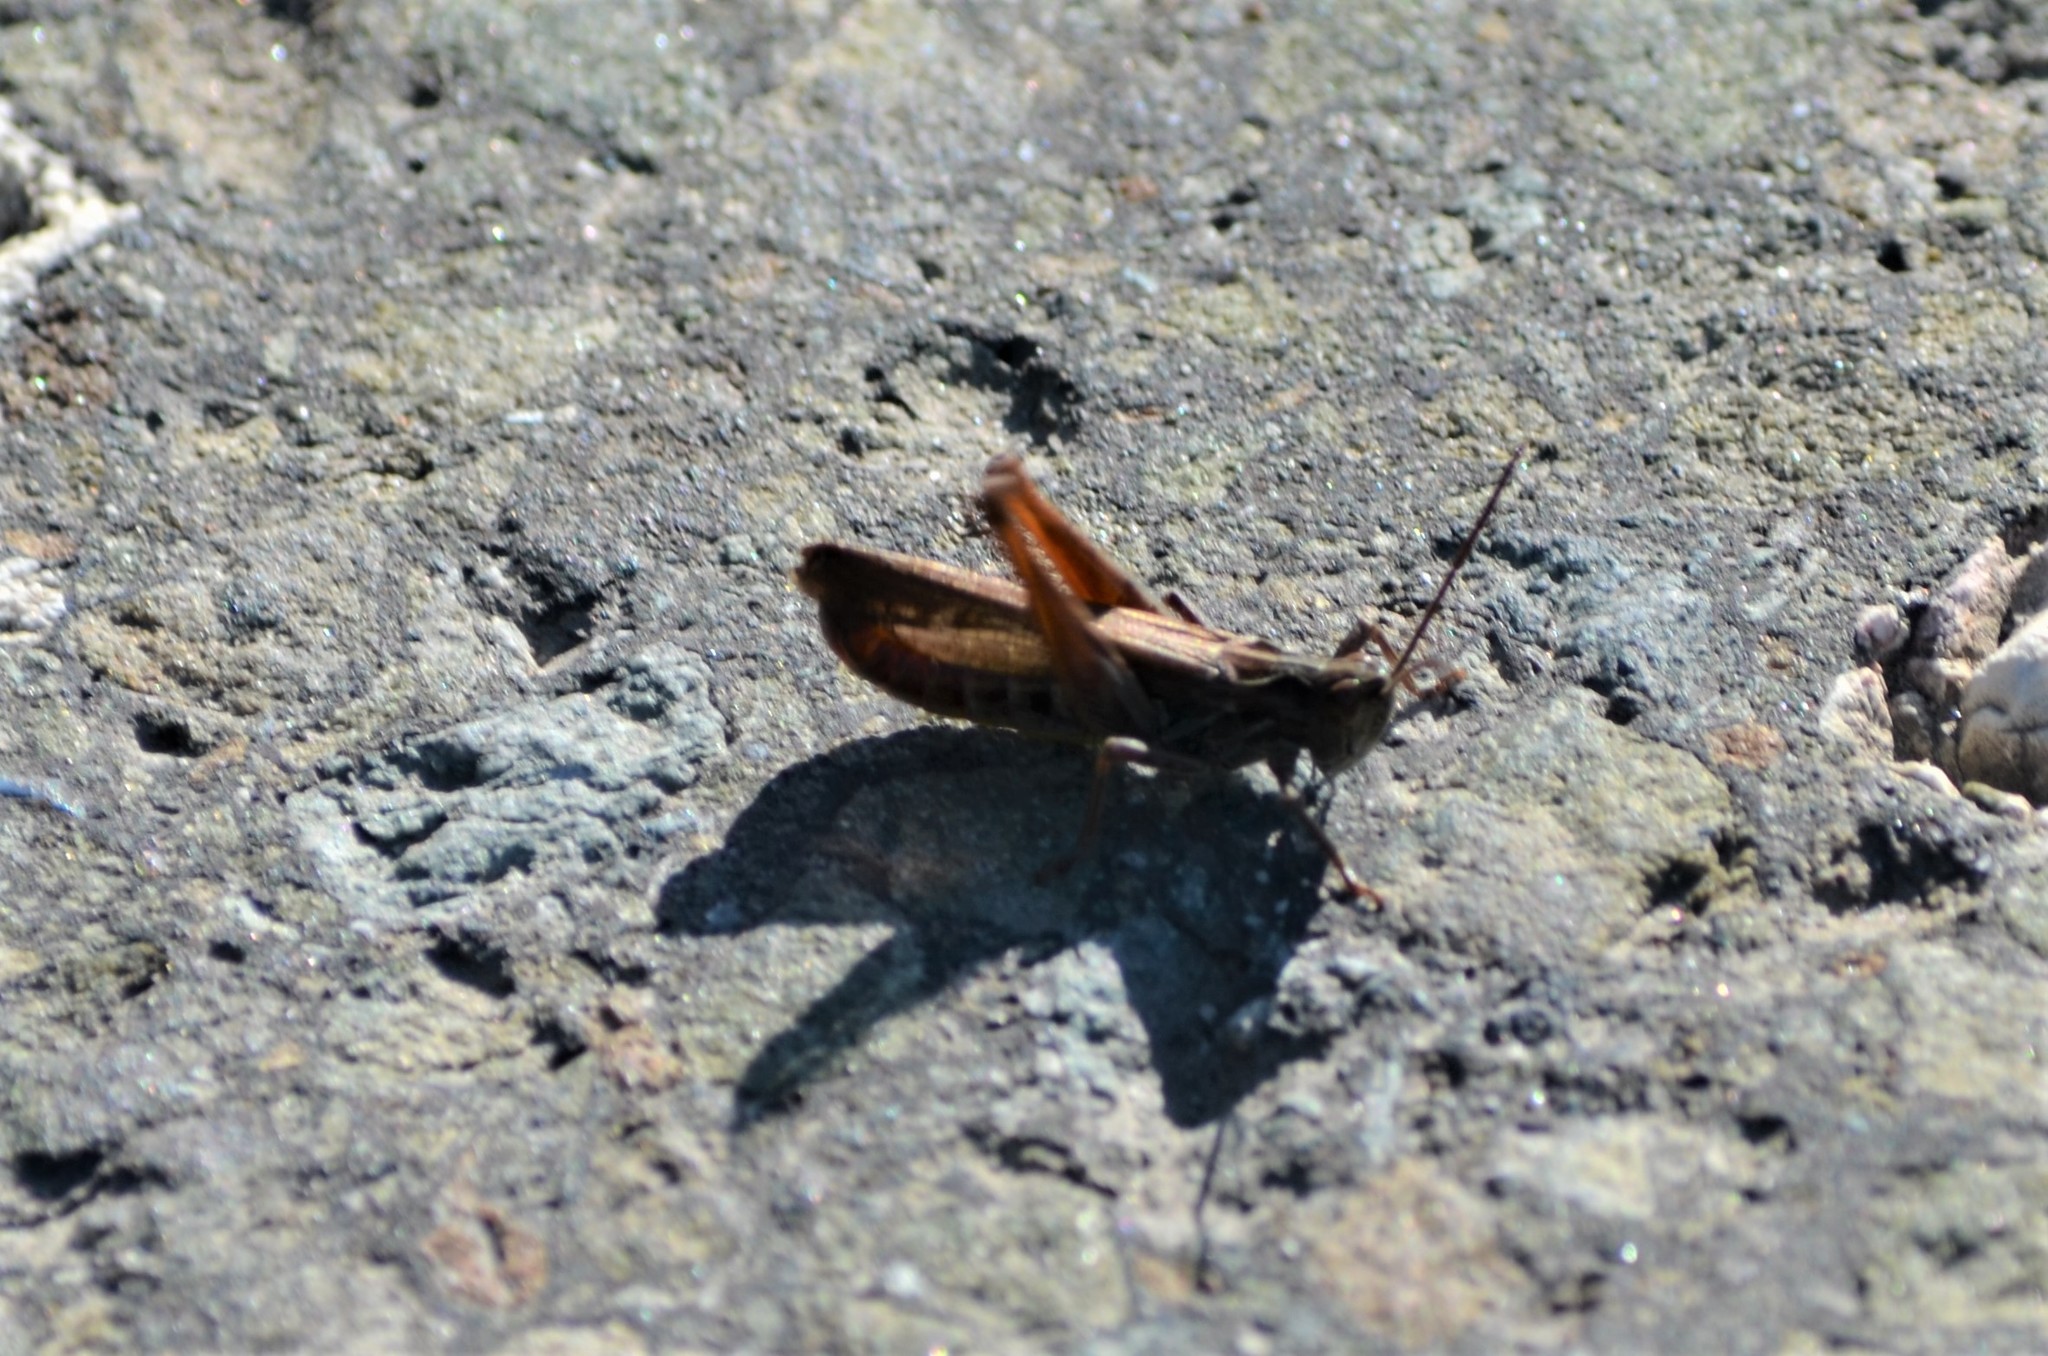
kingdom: Animalia
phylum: Arthropoda
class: Insecta
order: Orthoptera
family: Acrididae
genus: Chorthippus
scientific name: Chorthippus biguttulus
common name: Bow-winged grasshopper
